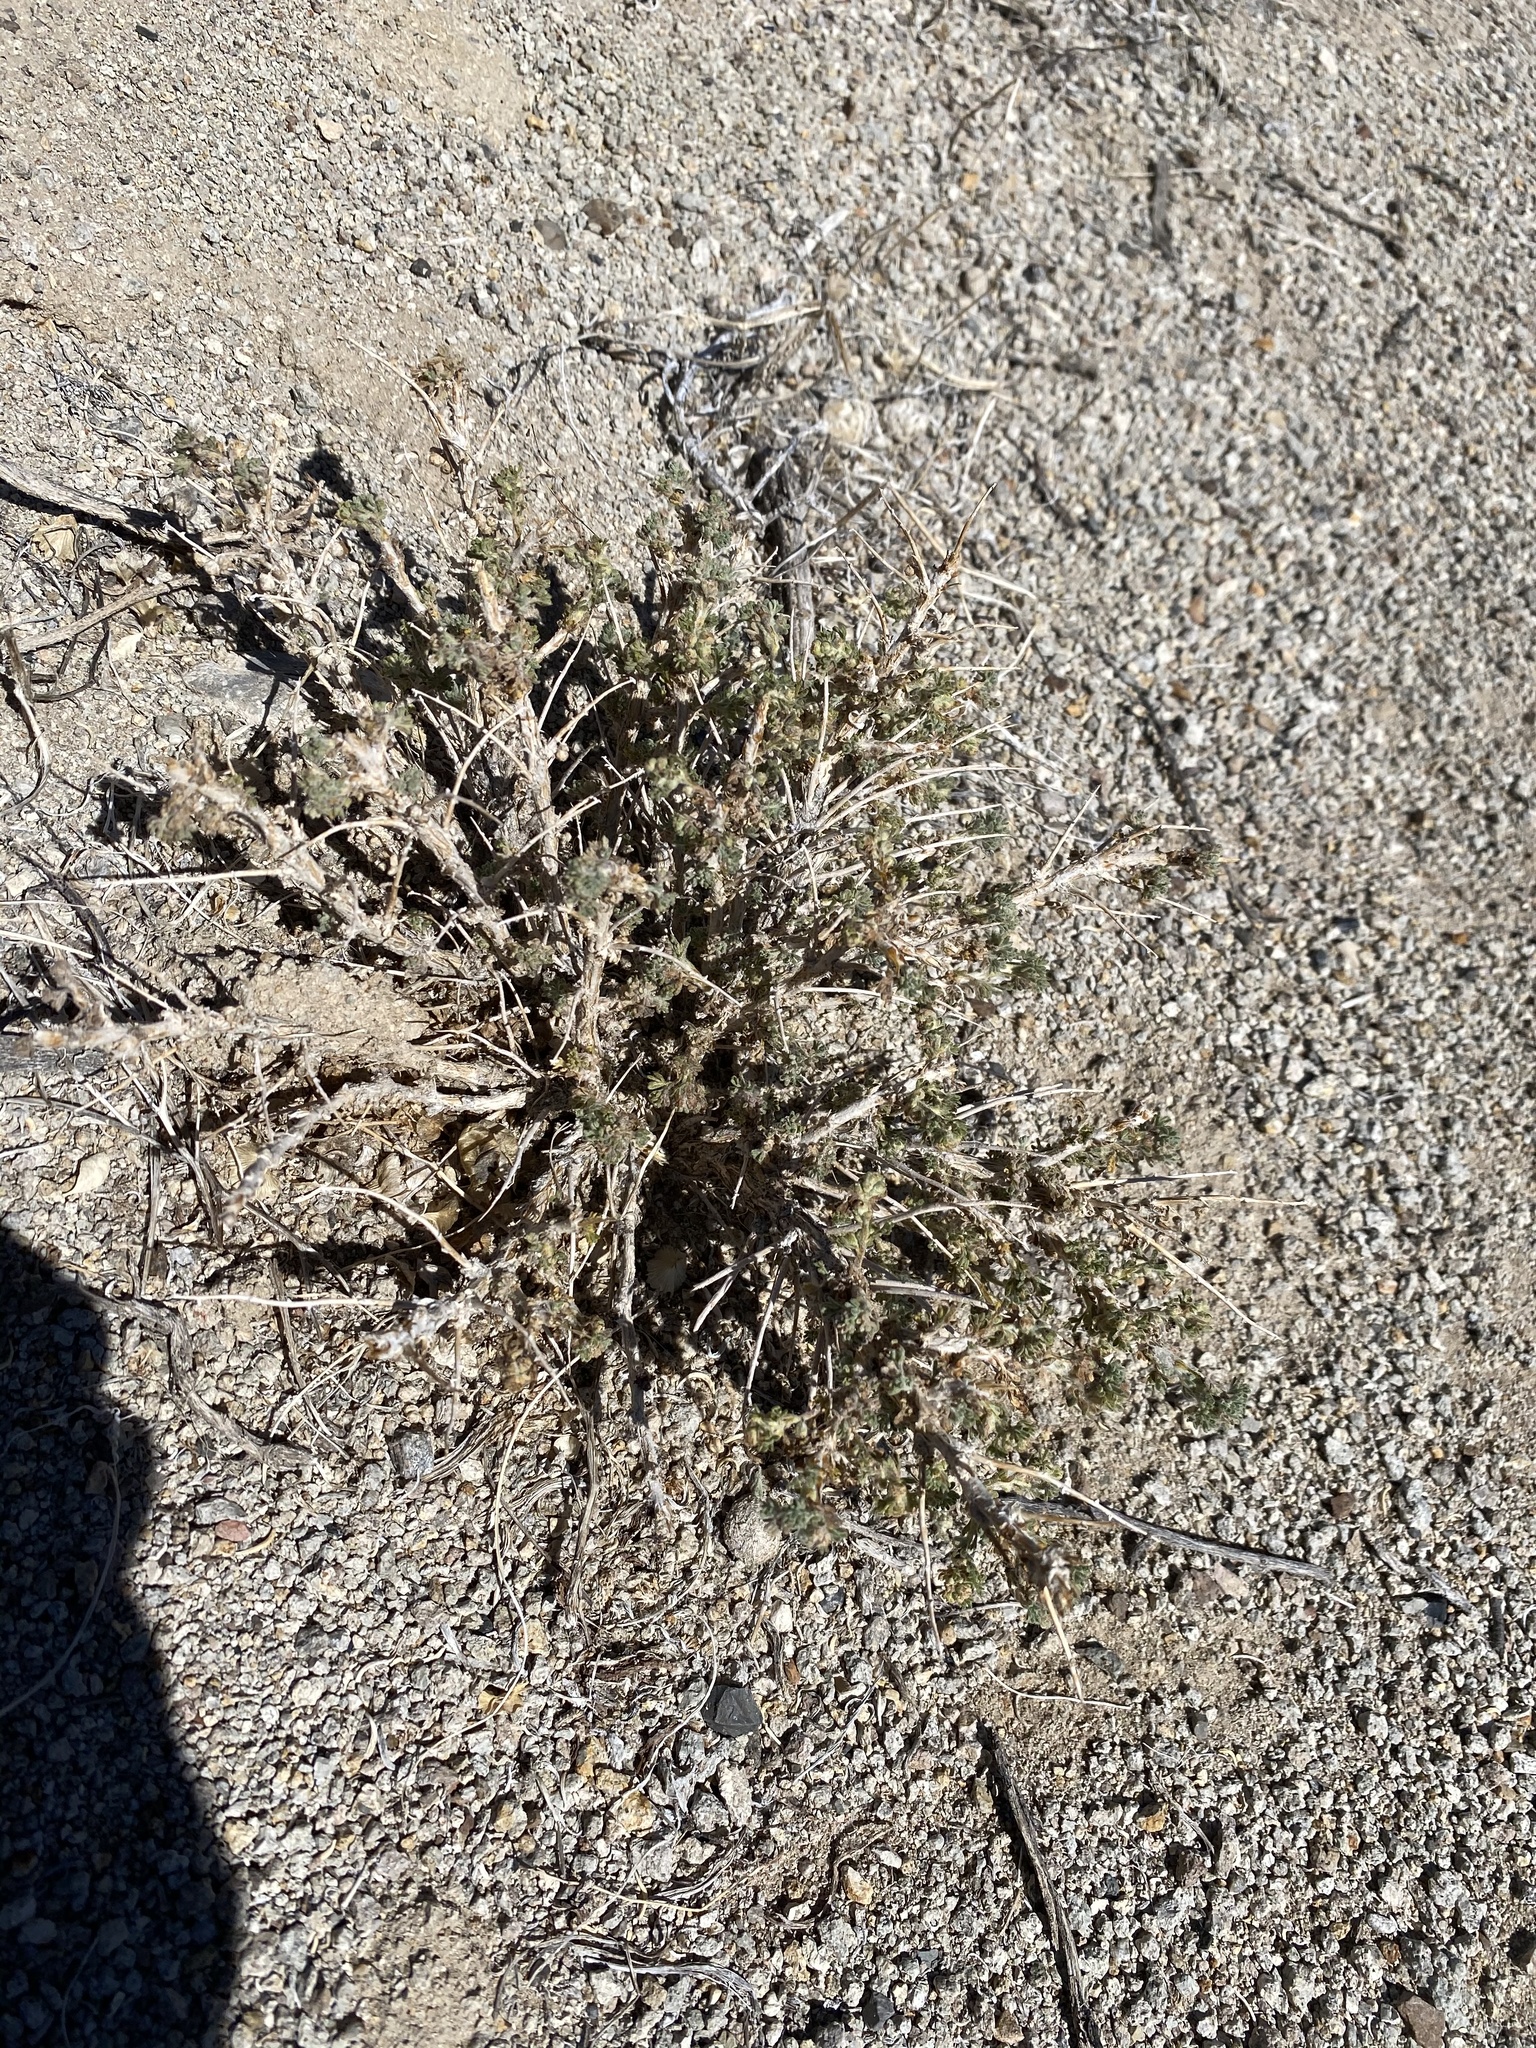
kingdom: Plantae
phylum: Tracheophyta
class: Magnoliopsida
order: Asterales
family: Asteraceae
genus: Artemisia
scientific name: Artemisia spinescens
